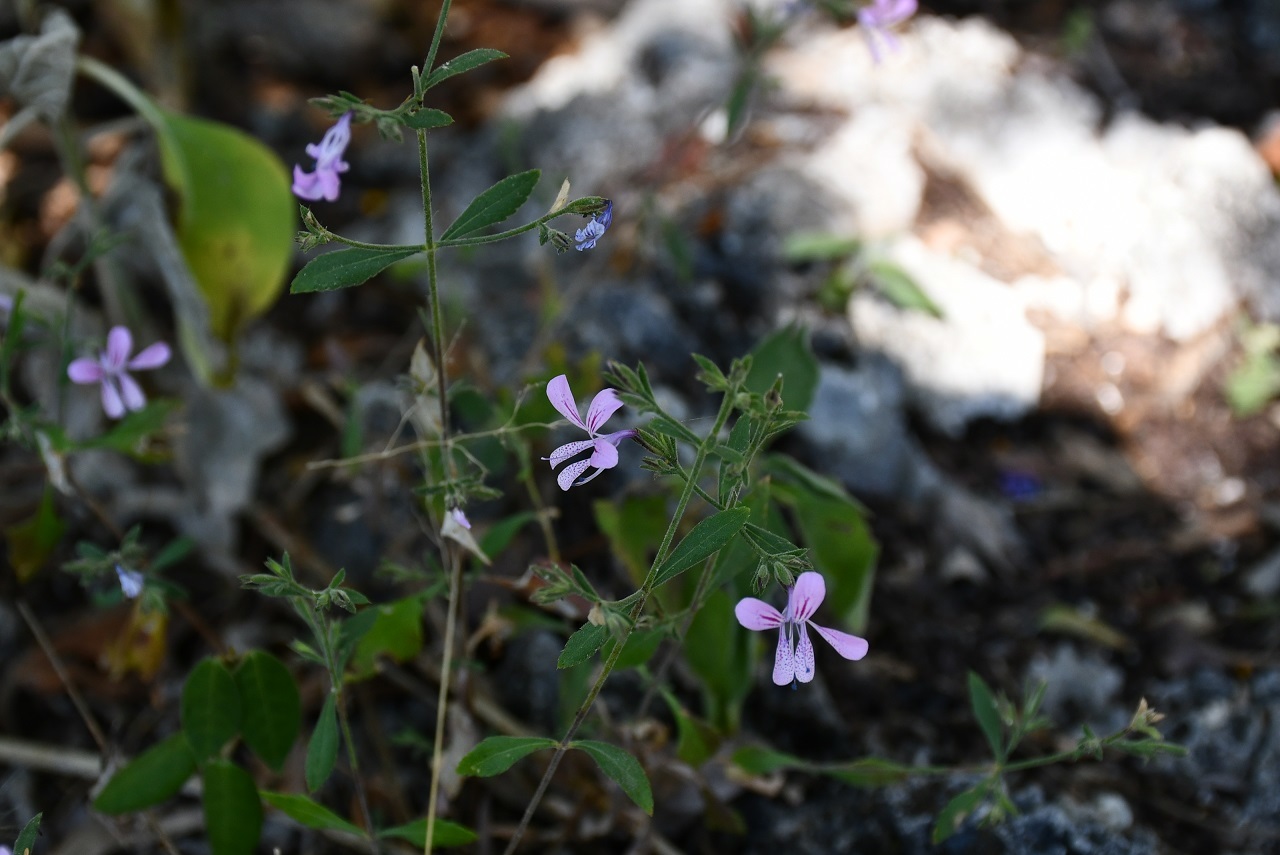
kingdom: Plantae
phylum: Tracheophyta
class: Magnoliopsida
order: Ericales
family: Polemoniaceae
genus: Loeselia
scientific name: Loeselia glandulosa
